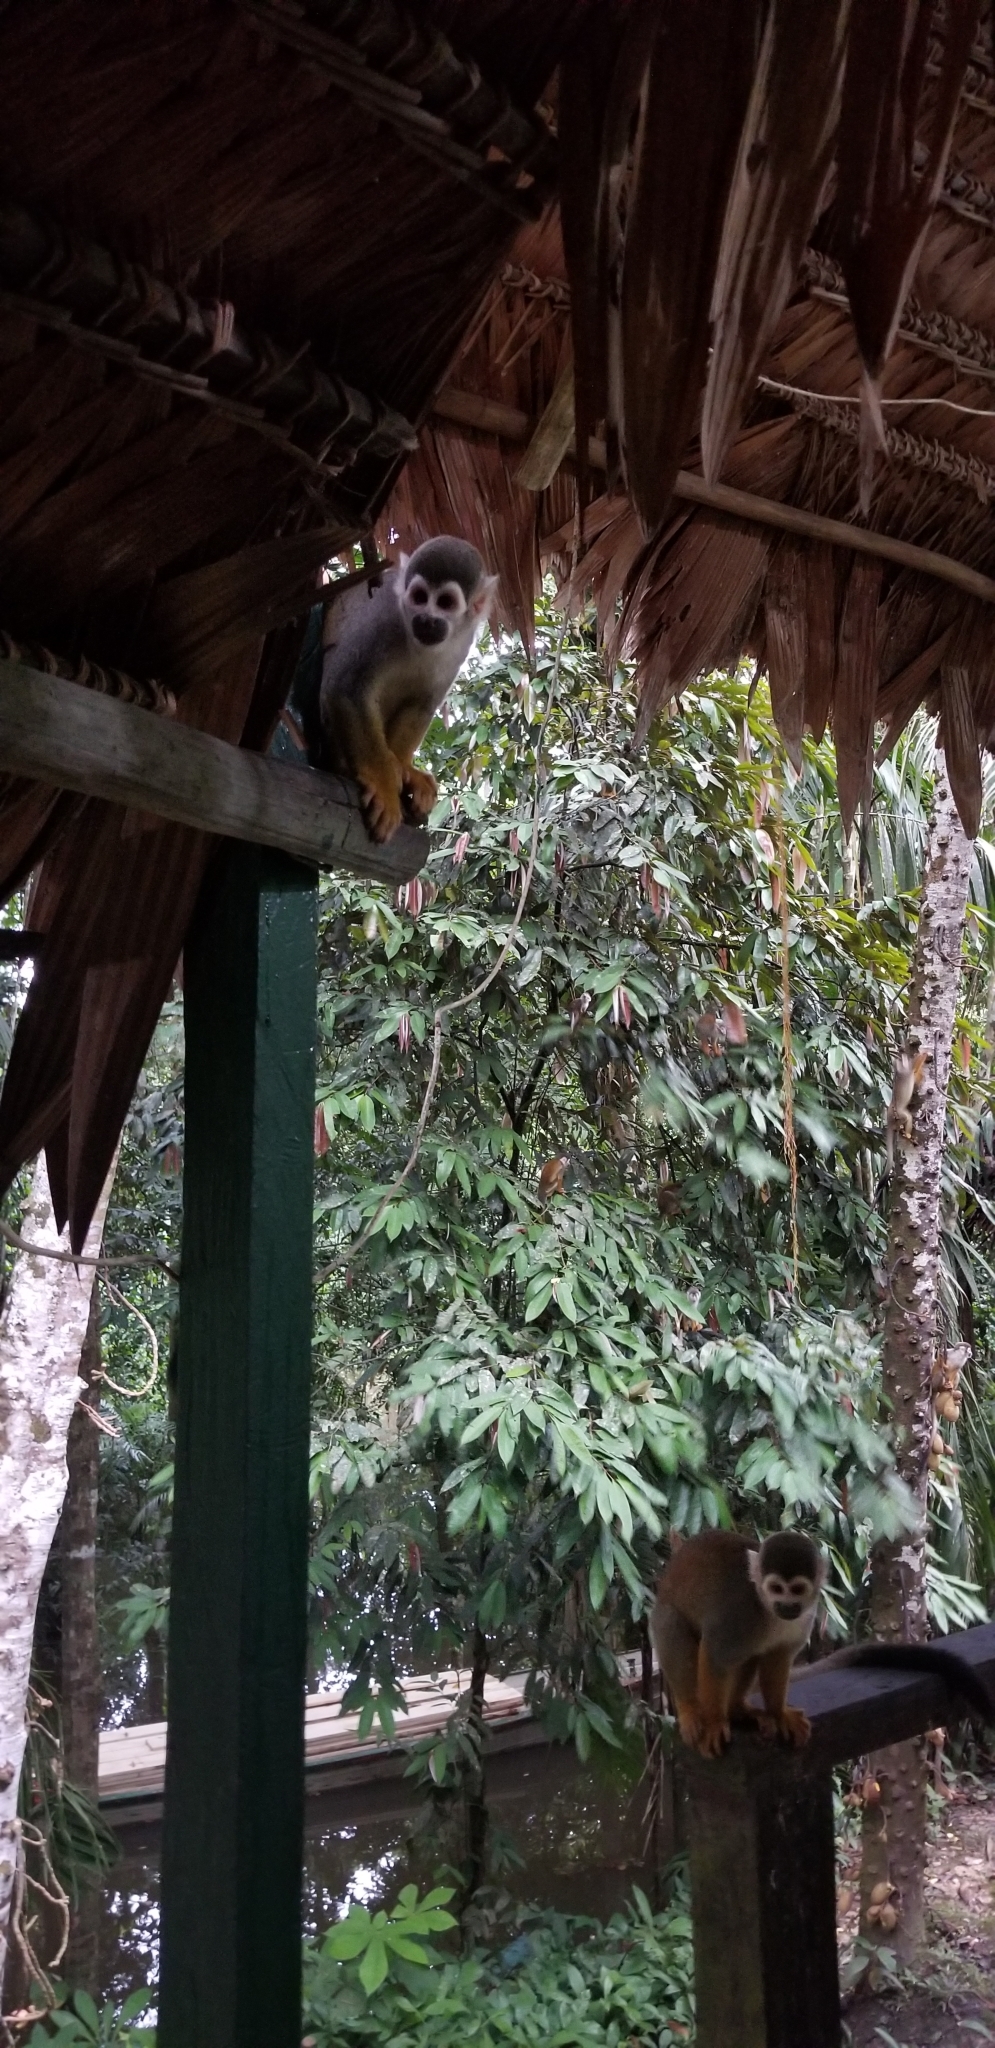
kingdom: Animalia
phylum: Chordata
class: Mammalia
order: Primates
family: Cebidae
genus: Saimiri
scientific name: Saimiri cassiquiarensis
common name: Humboldt’s squirrel monkey
